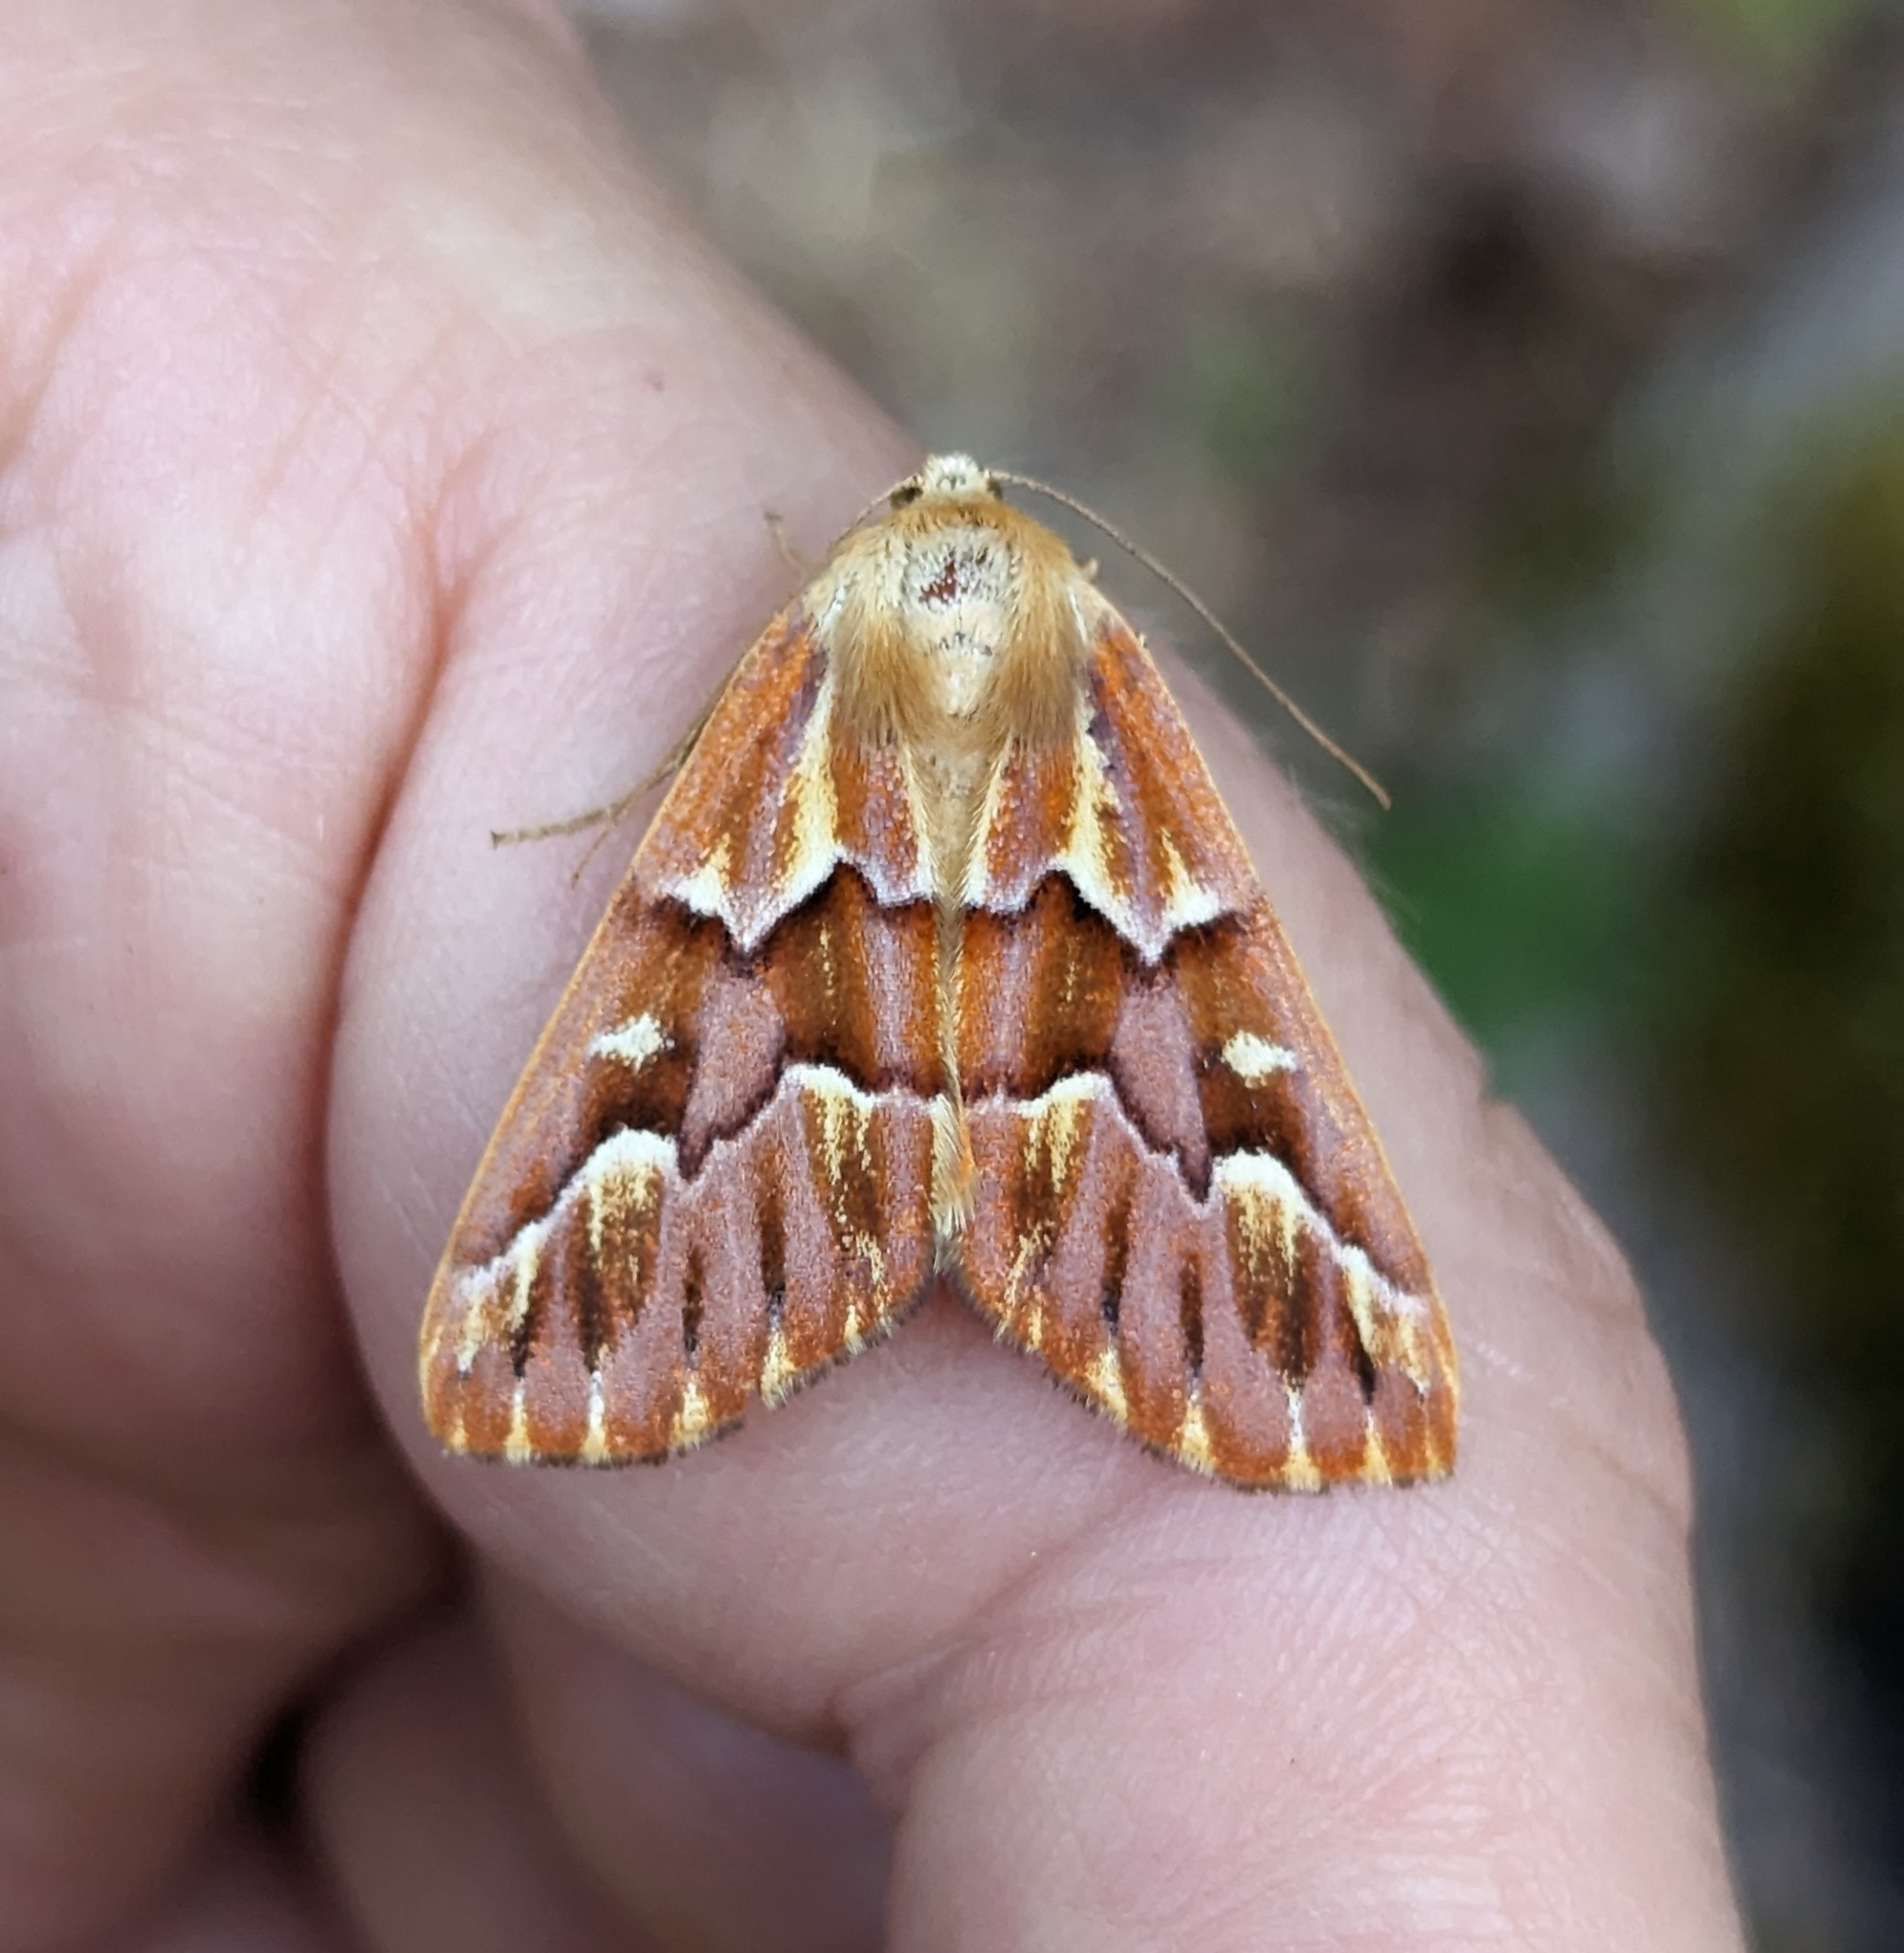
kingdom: Animalia
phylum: Arthropoda
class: Insecta
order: Lepidoptera
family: Geometridae
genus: Caripeta
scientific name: Caripeta aequaliaria
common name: Red girdle moth
